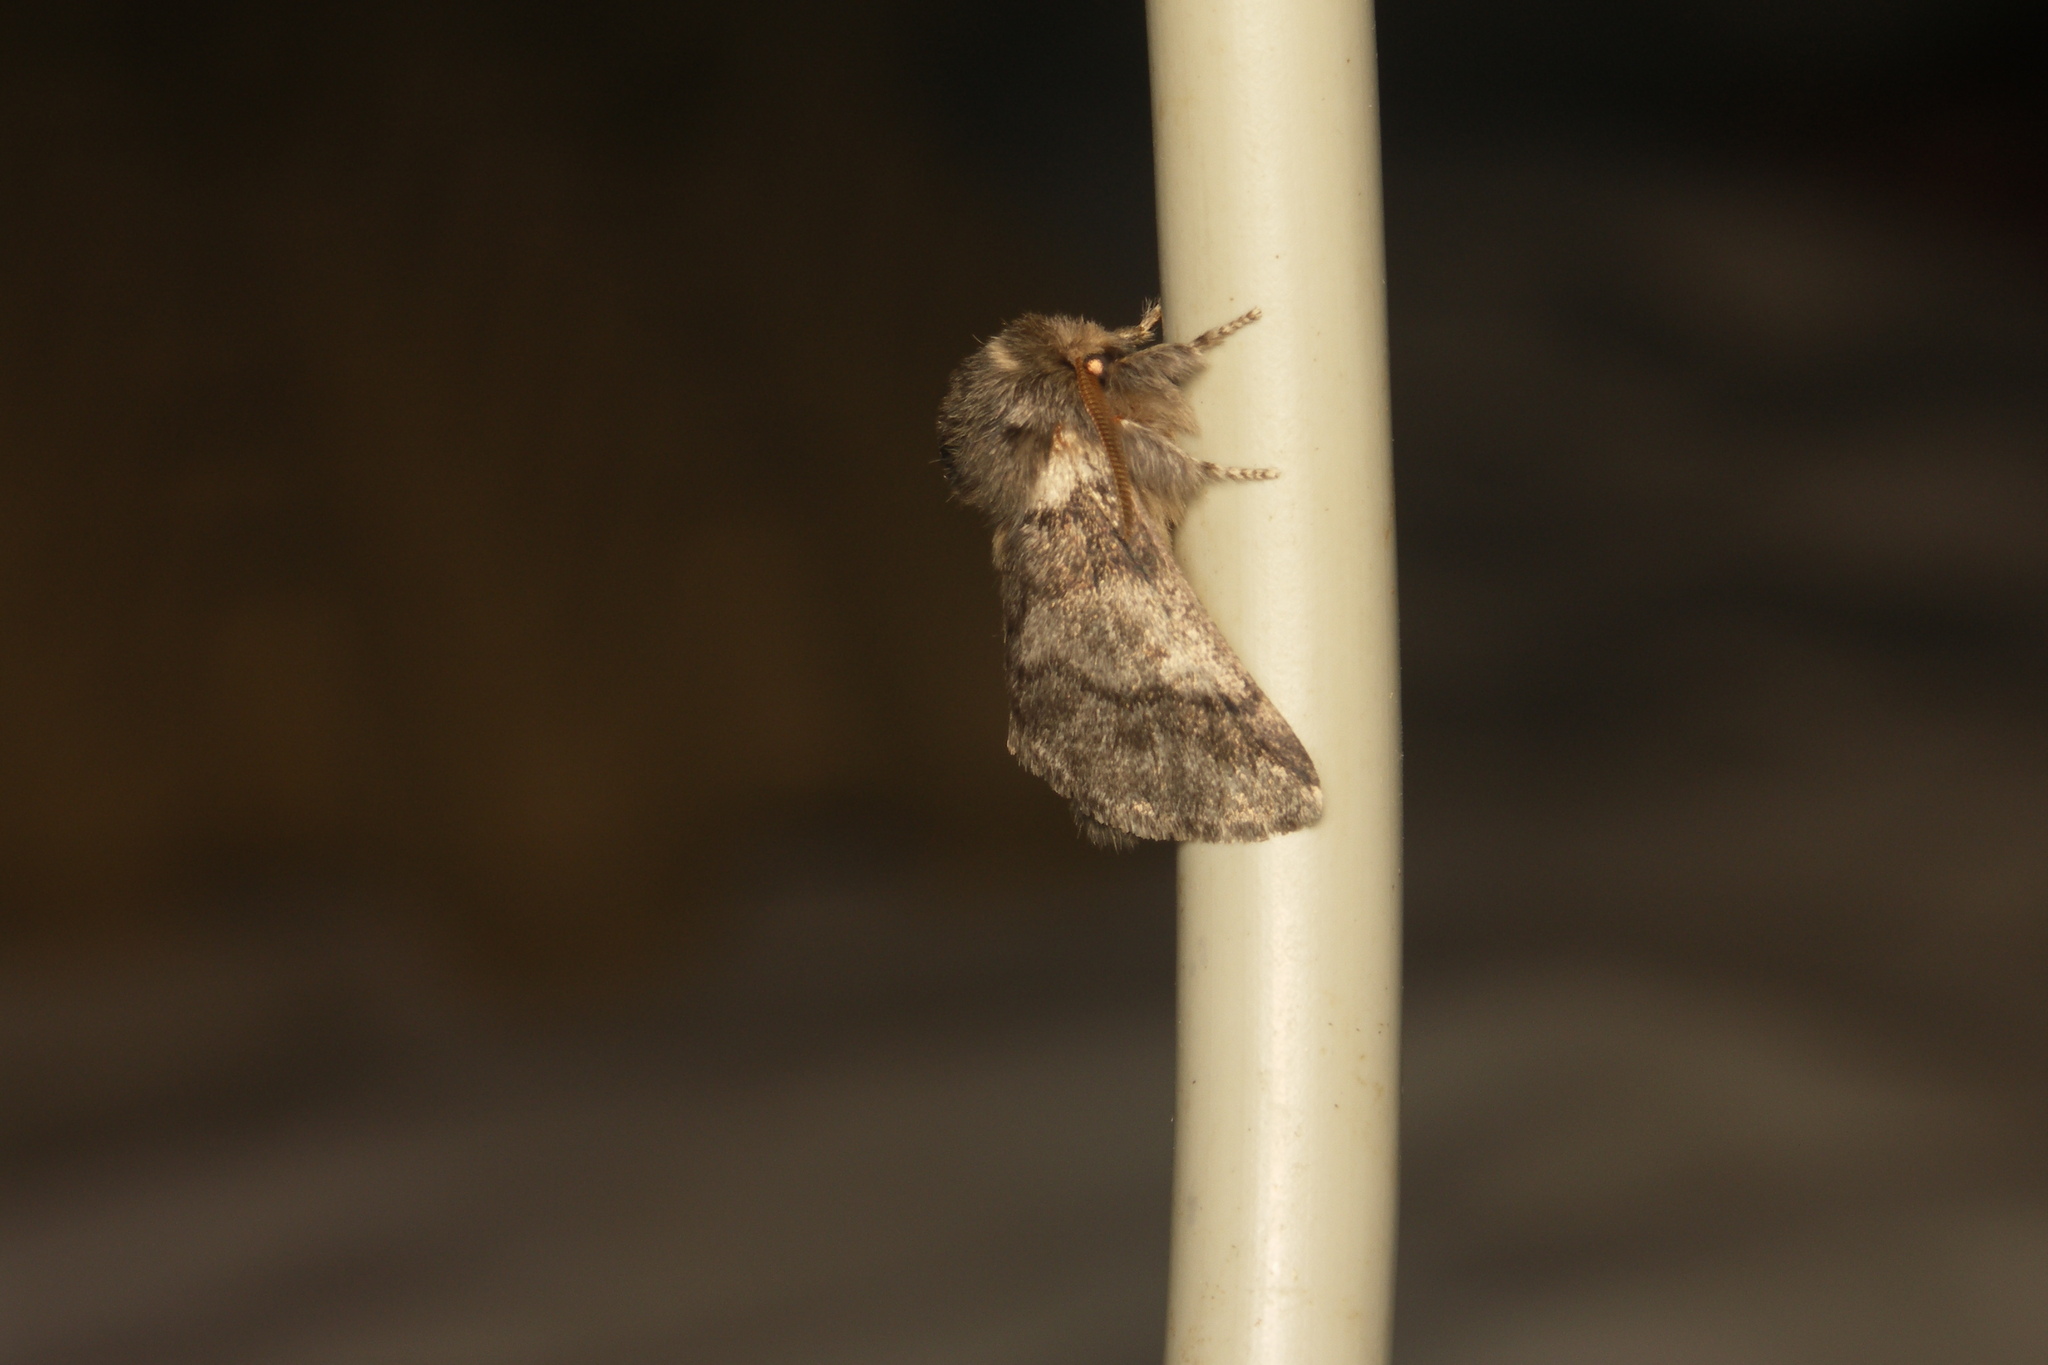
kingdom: Animalia
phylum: Arthropoda
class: Insecta
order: Lepidoptera
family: Notodontidae
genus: Thaumetopoea
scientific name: Thaumetopoea processionea
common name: Oak processionea
